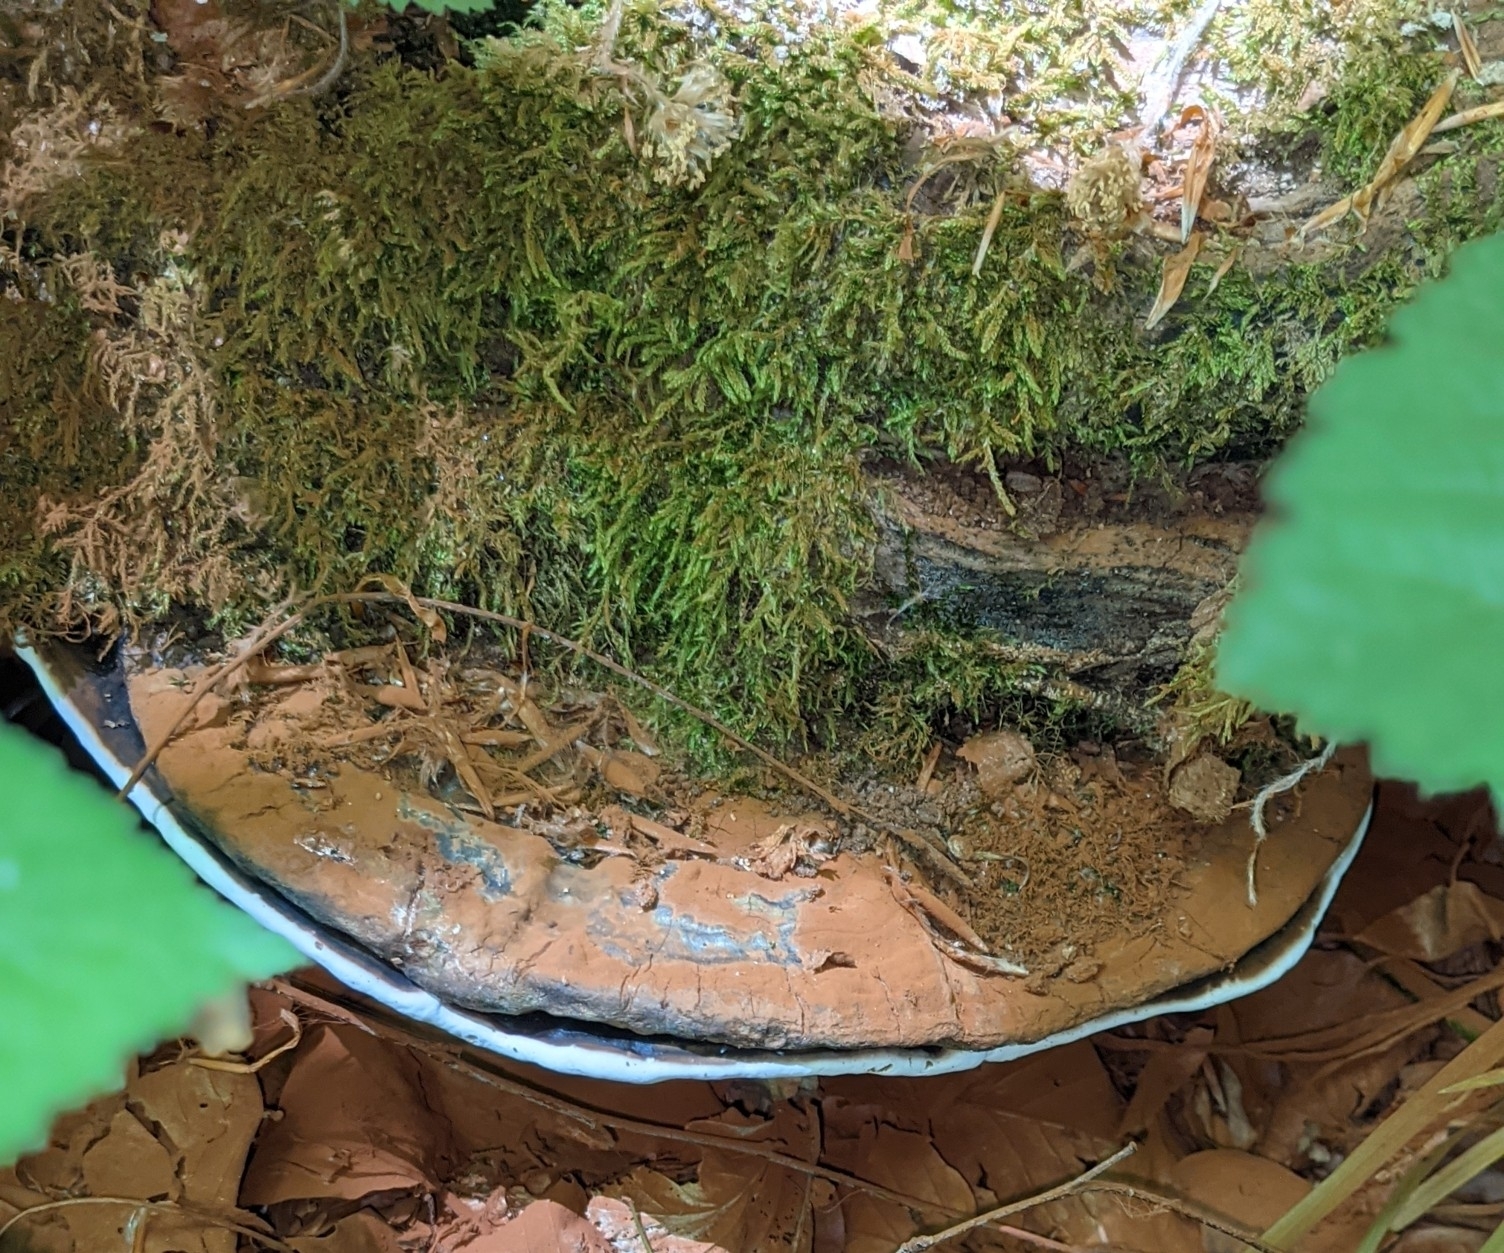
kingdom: Fungi
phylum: Basidiomycota
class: Agaricomycetes
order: Polyporales
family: Polyporaceae
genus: Ganoderma
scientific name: Ganoderma applanatum
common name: Artist's bracket
